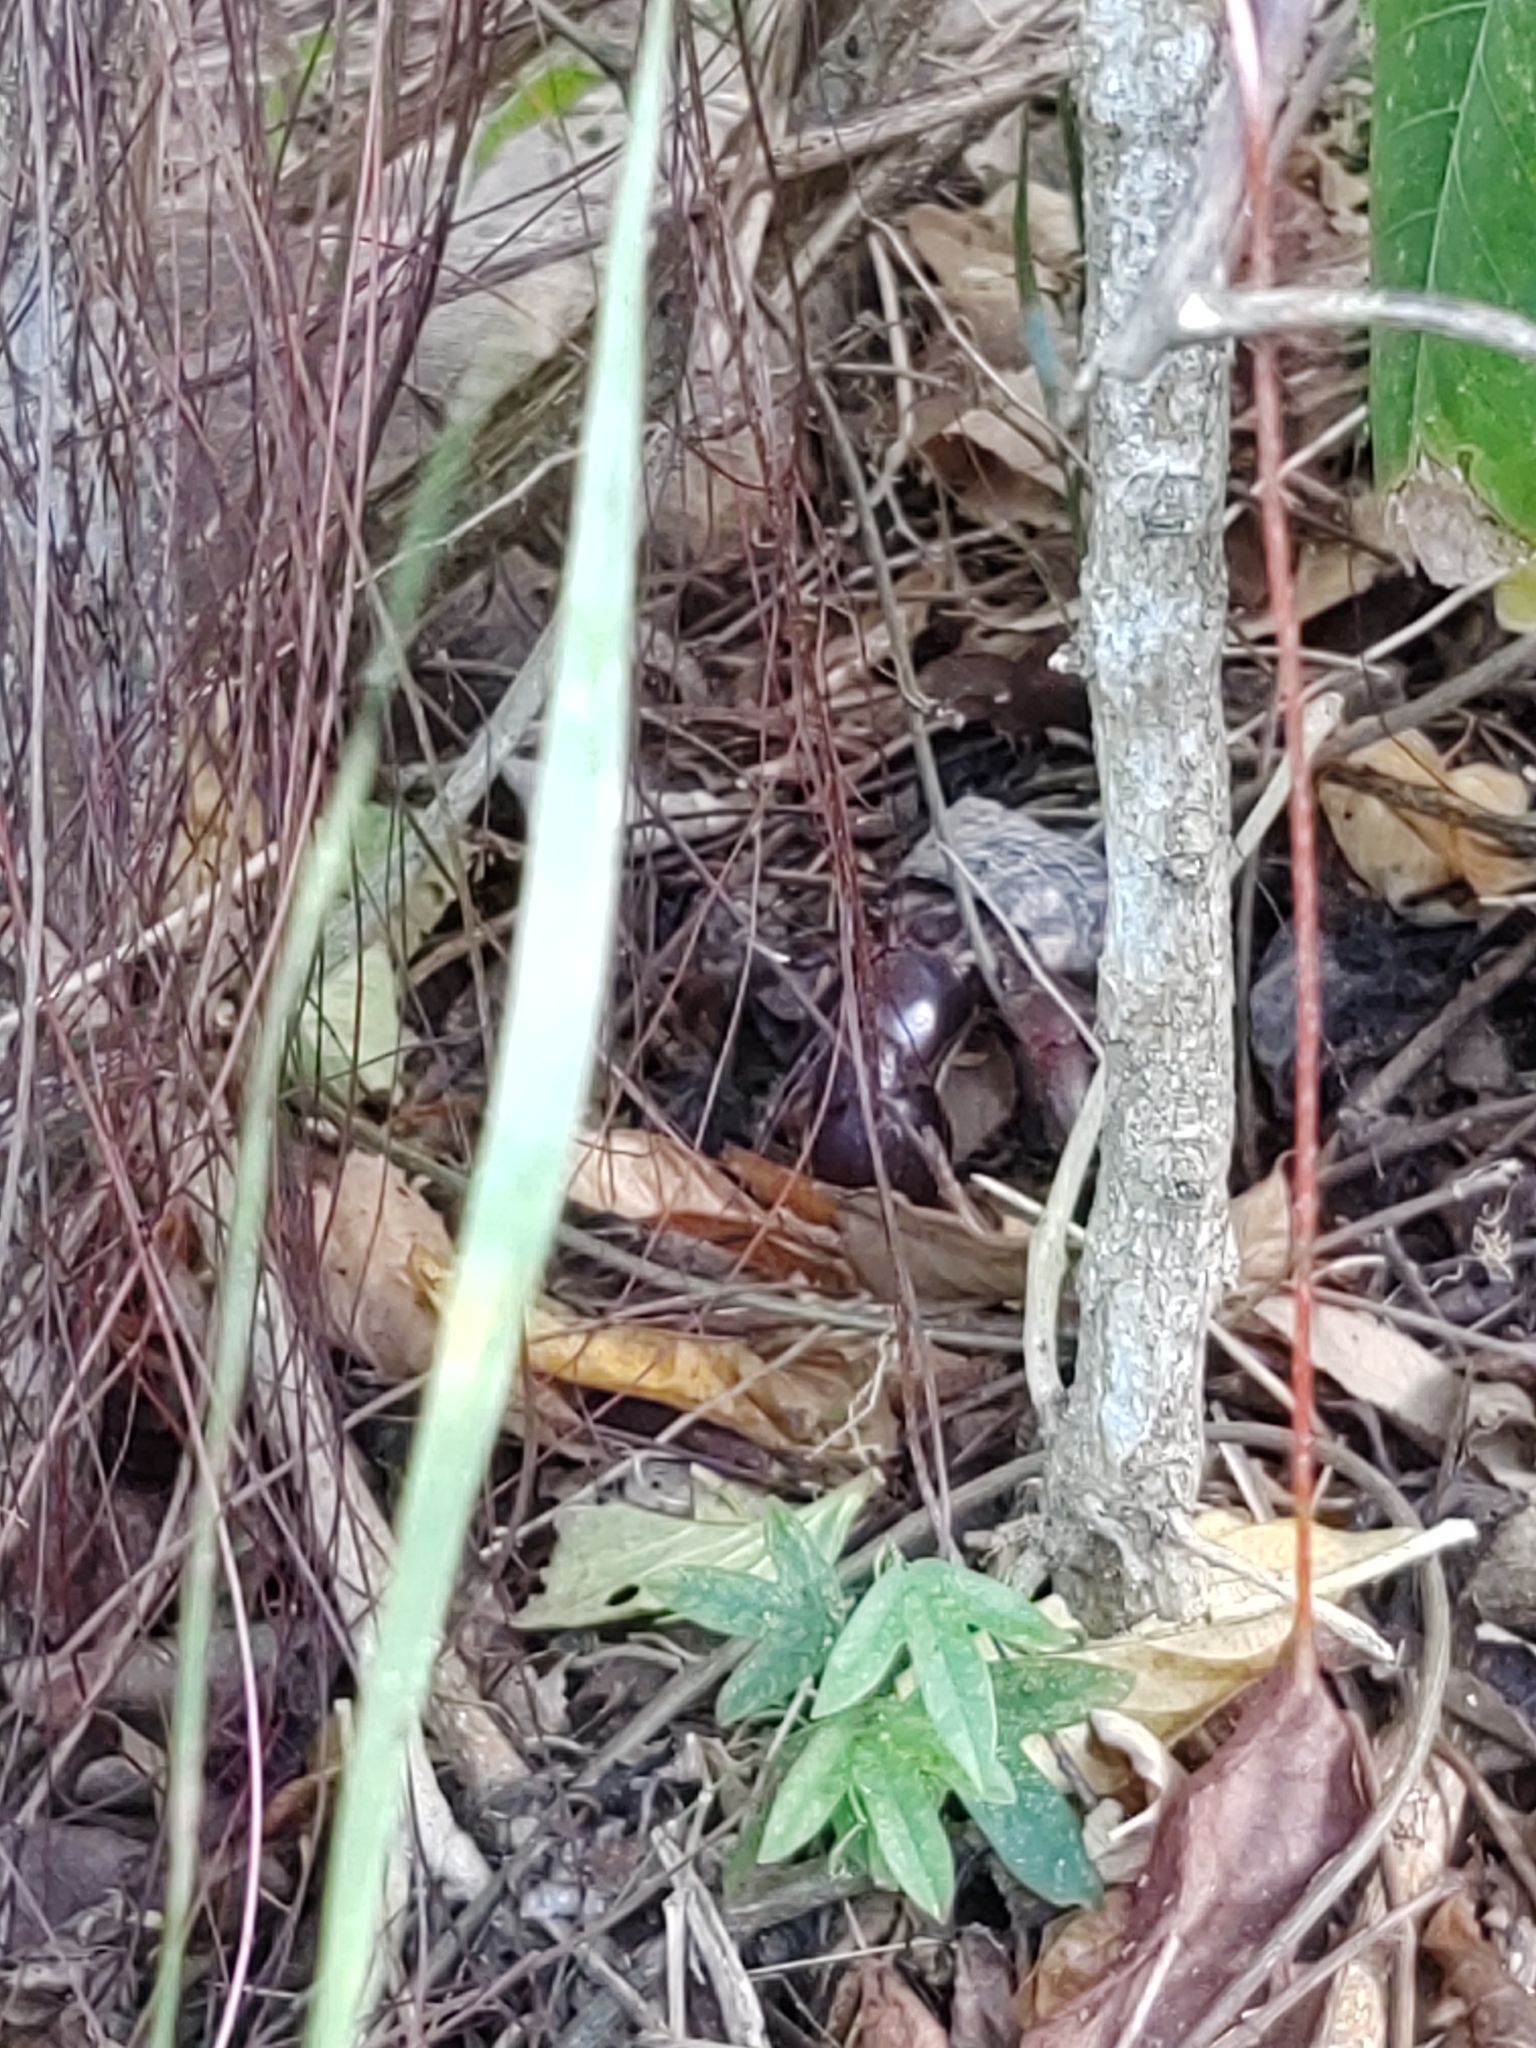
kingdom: Animalia
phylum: Mollusca
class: Gastropoda
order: Trochida
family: Tegulidae
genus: Cittarium
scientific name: Cittarium pica
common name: West indian topshell
